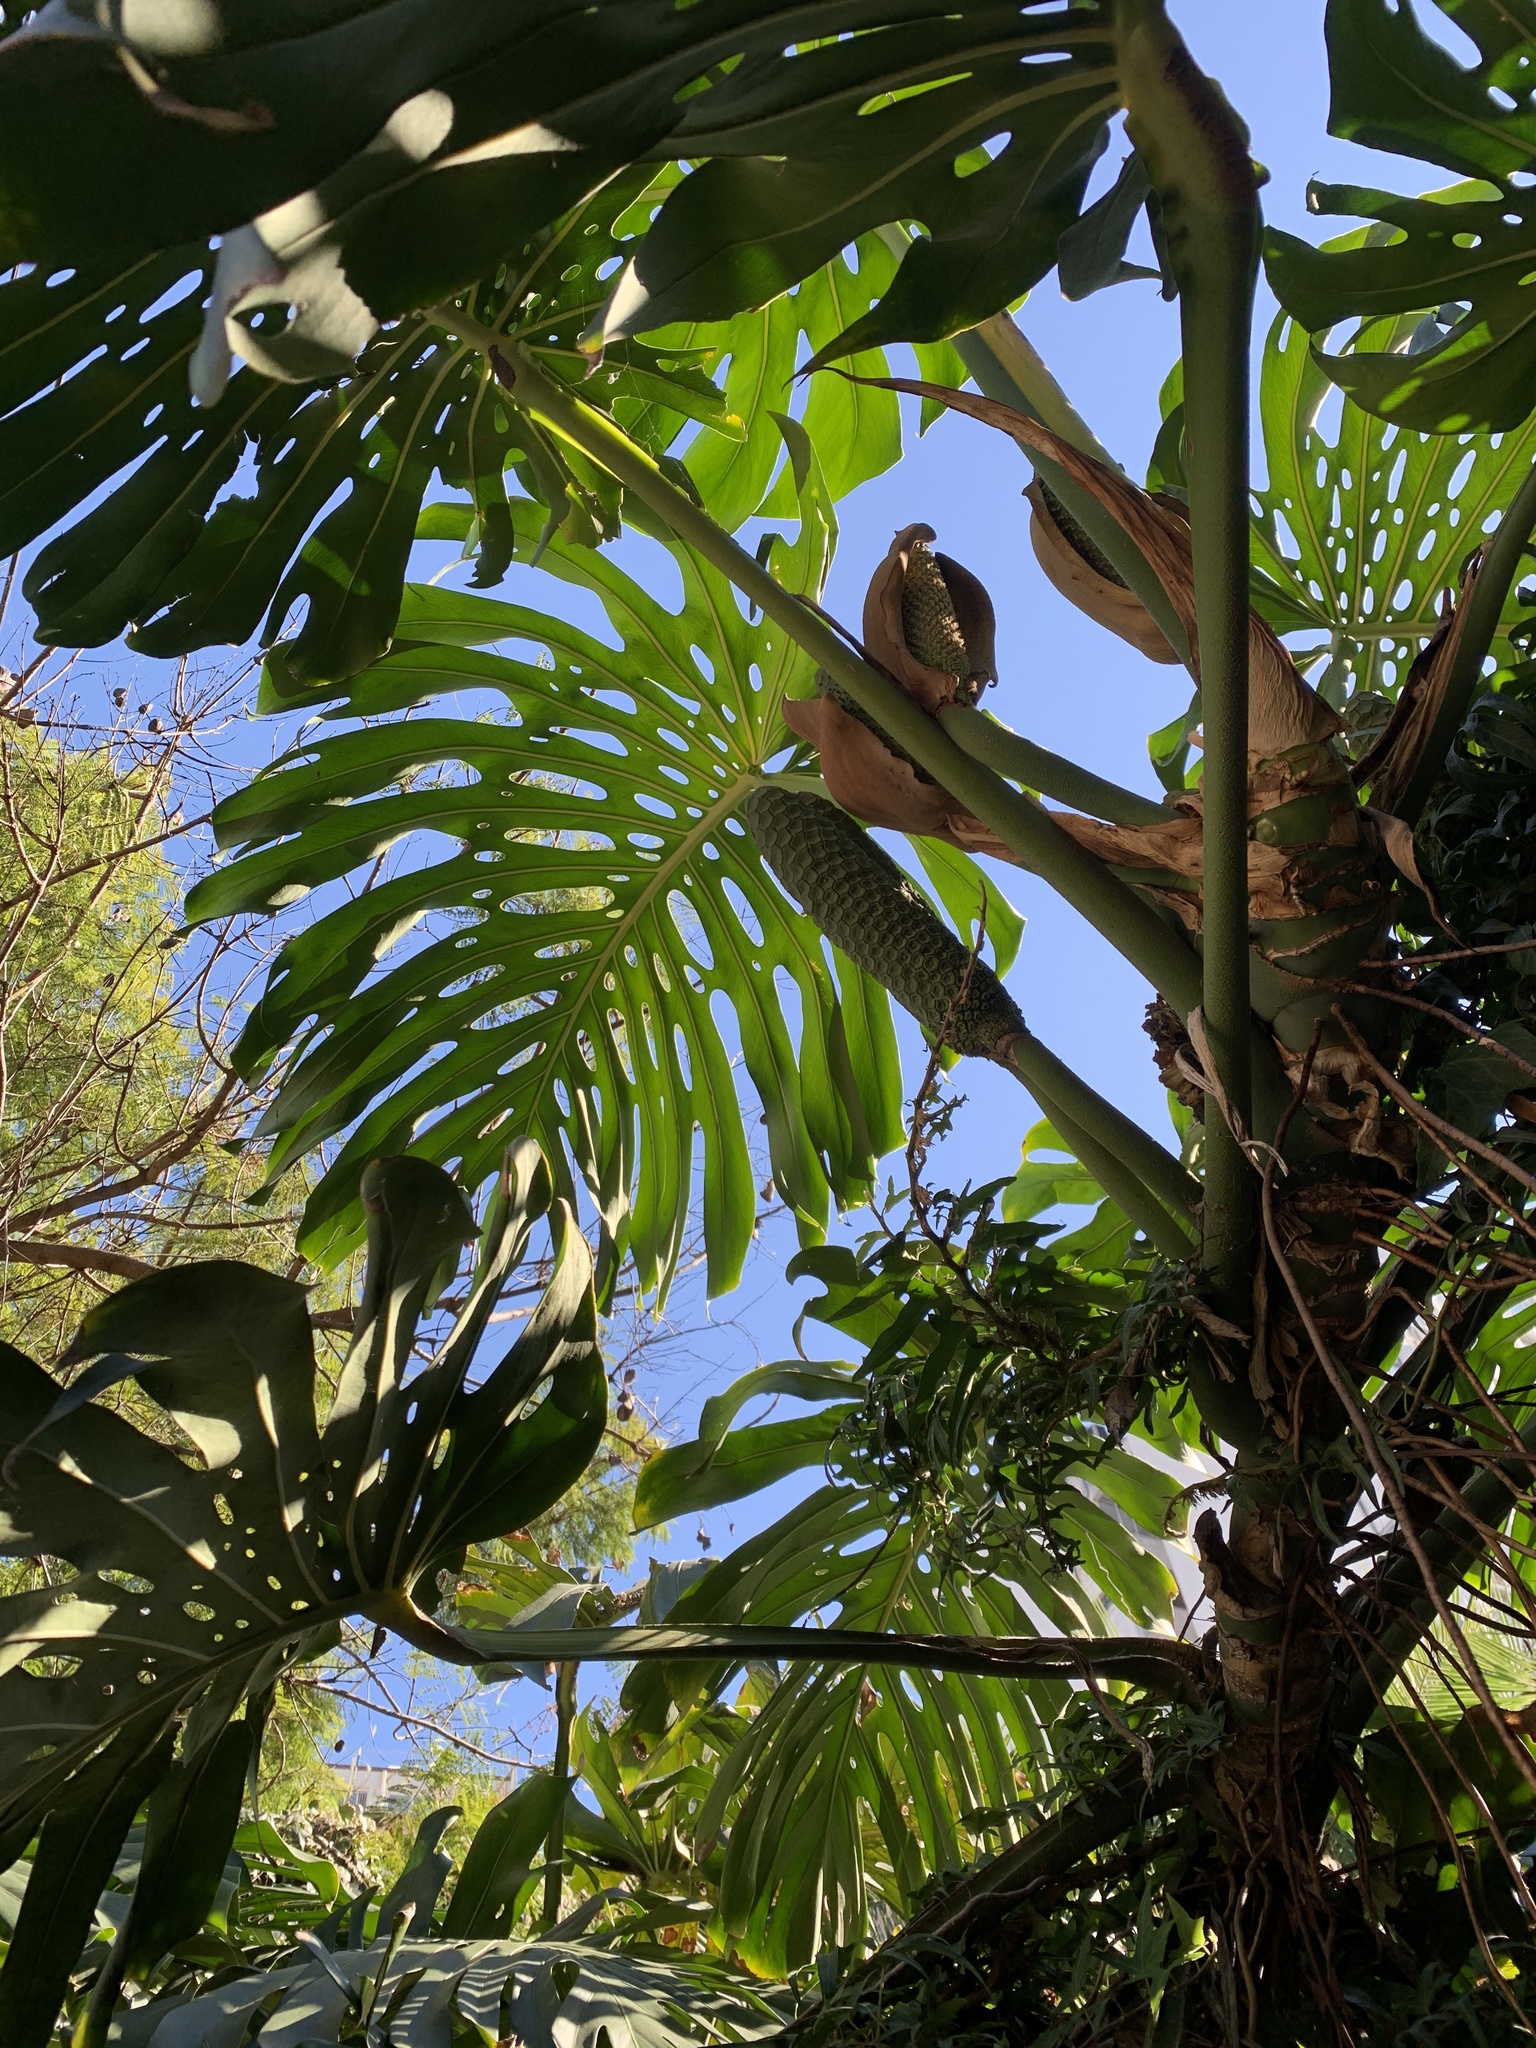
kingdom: Plantae
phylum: Tracheophyta
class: Liliopsida
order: Alismatales
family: Araceae
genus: Monstera
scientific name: Monstera deliciosa
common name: Cut-leaf-philodendron
